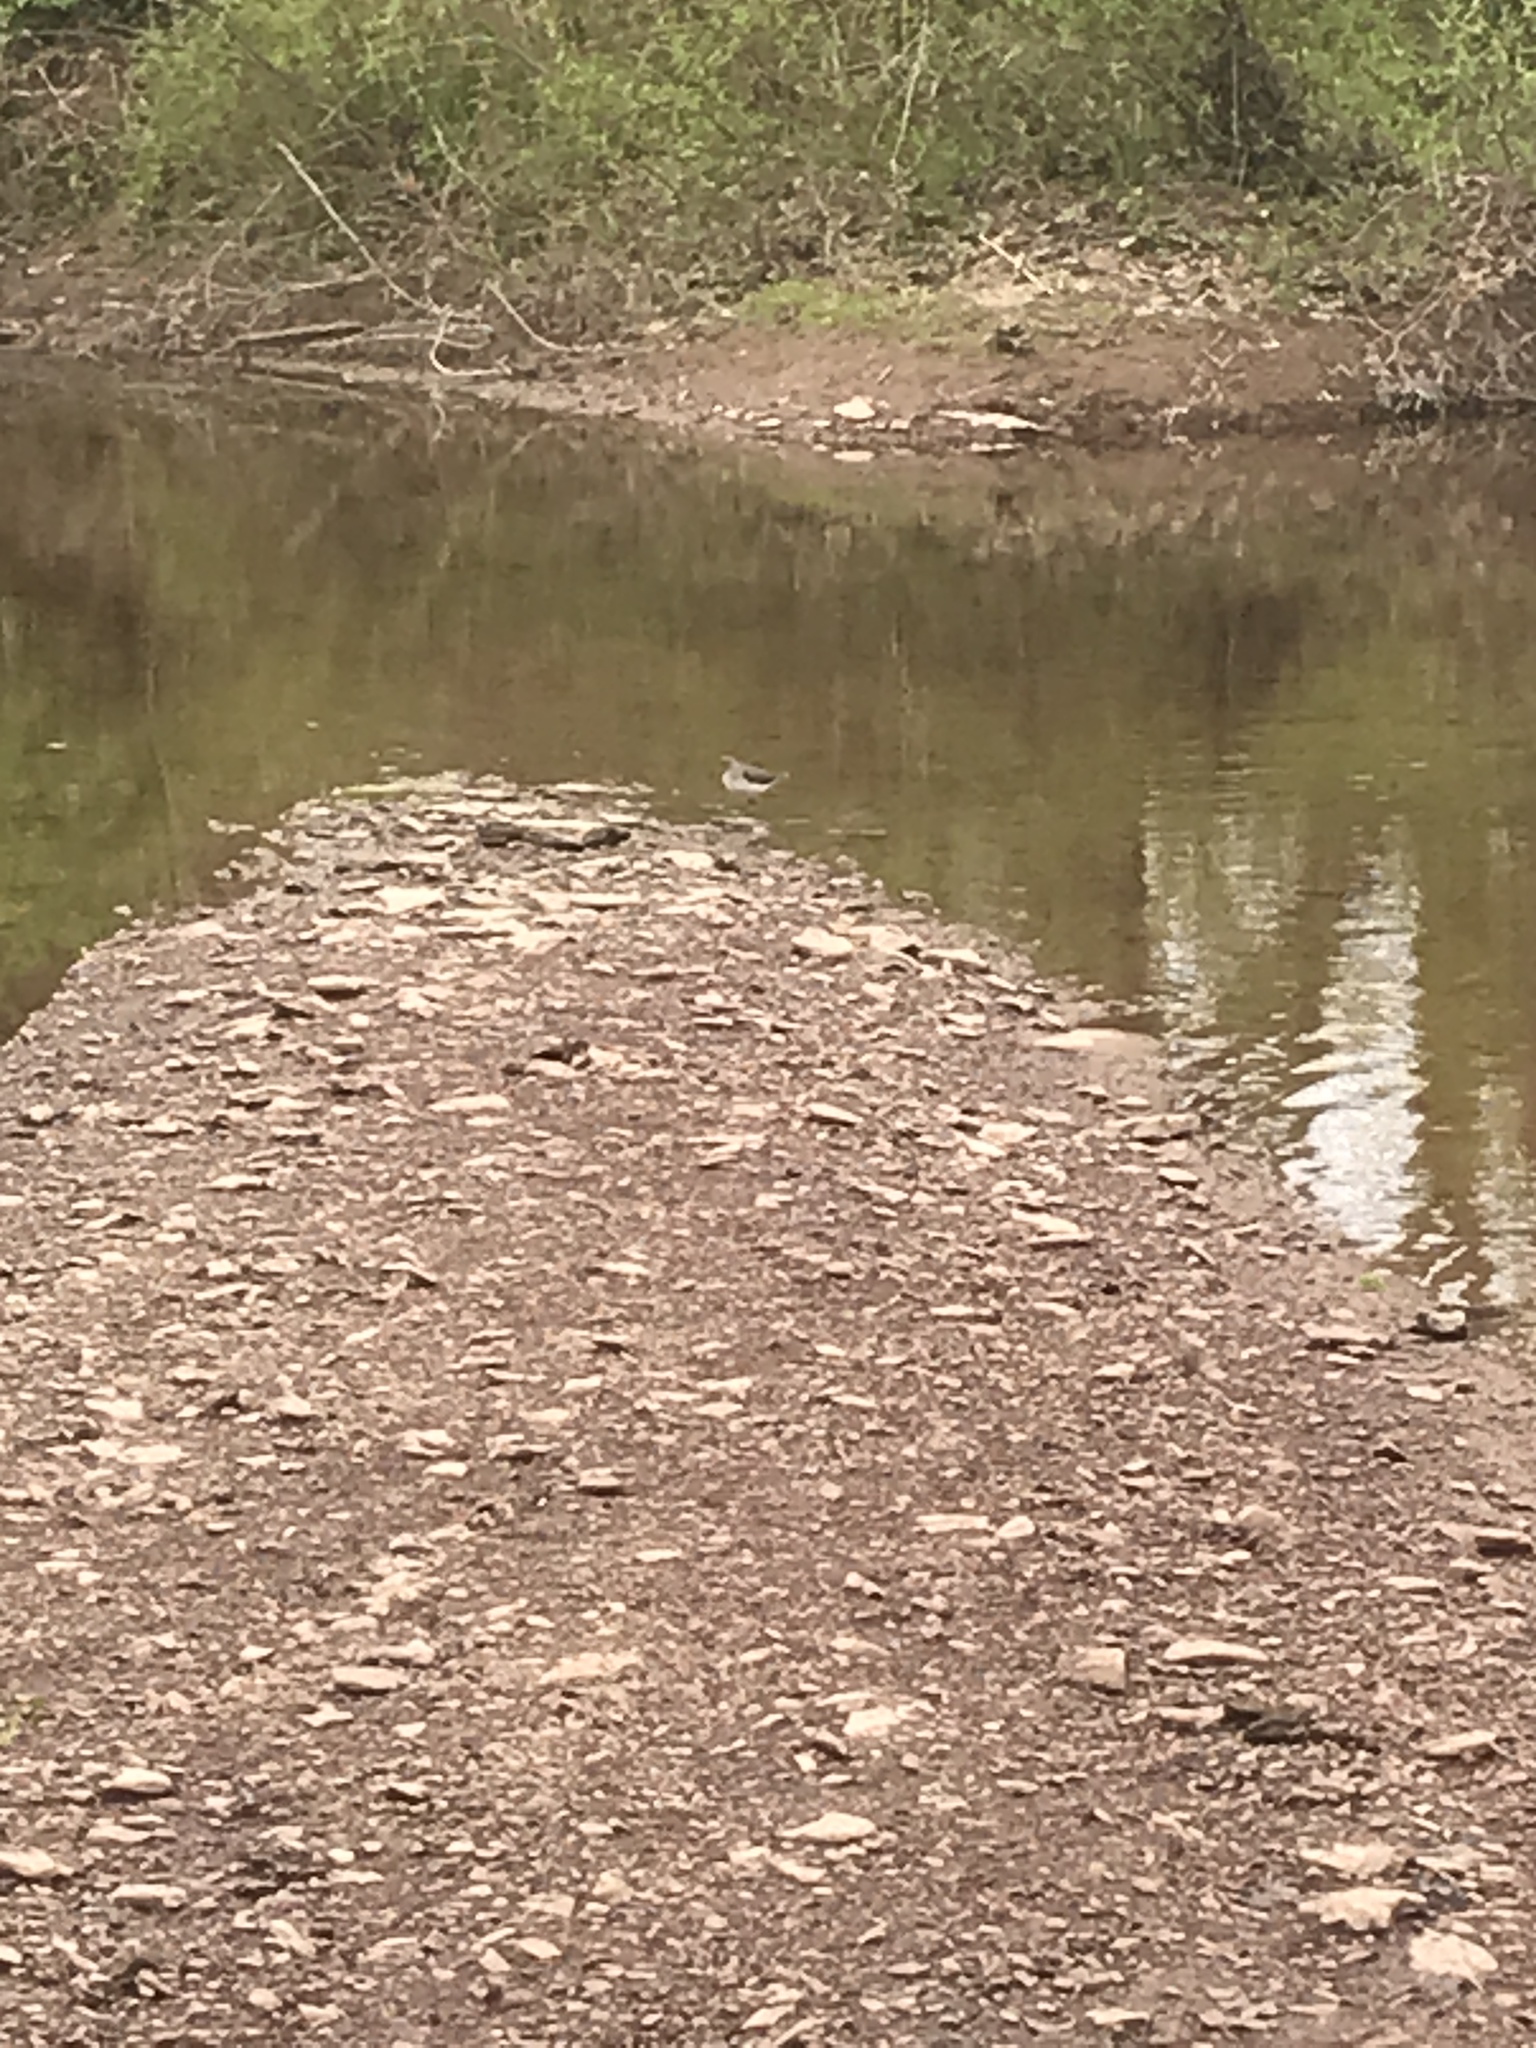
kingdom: Animalia
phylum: Chordata
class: Aves
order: Charadriiformes
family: Scolopacidae
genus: Tringa
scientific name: Tringa solitaria
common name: Solitary sandpiper
